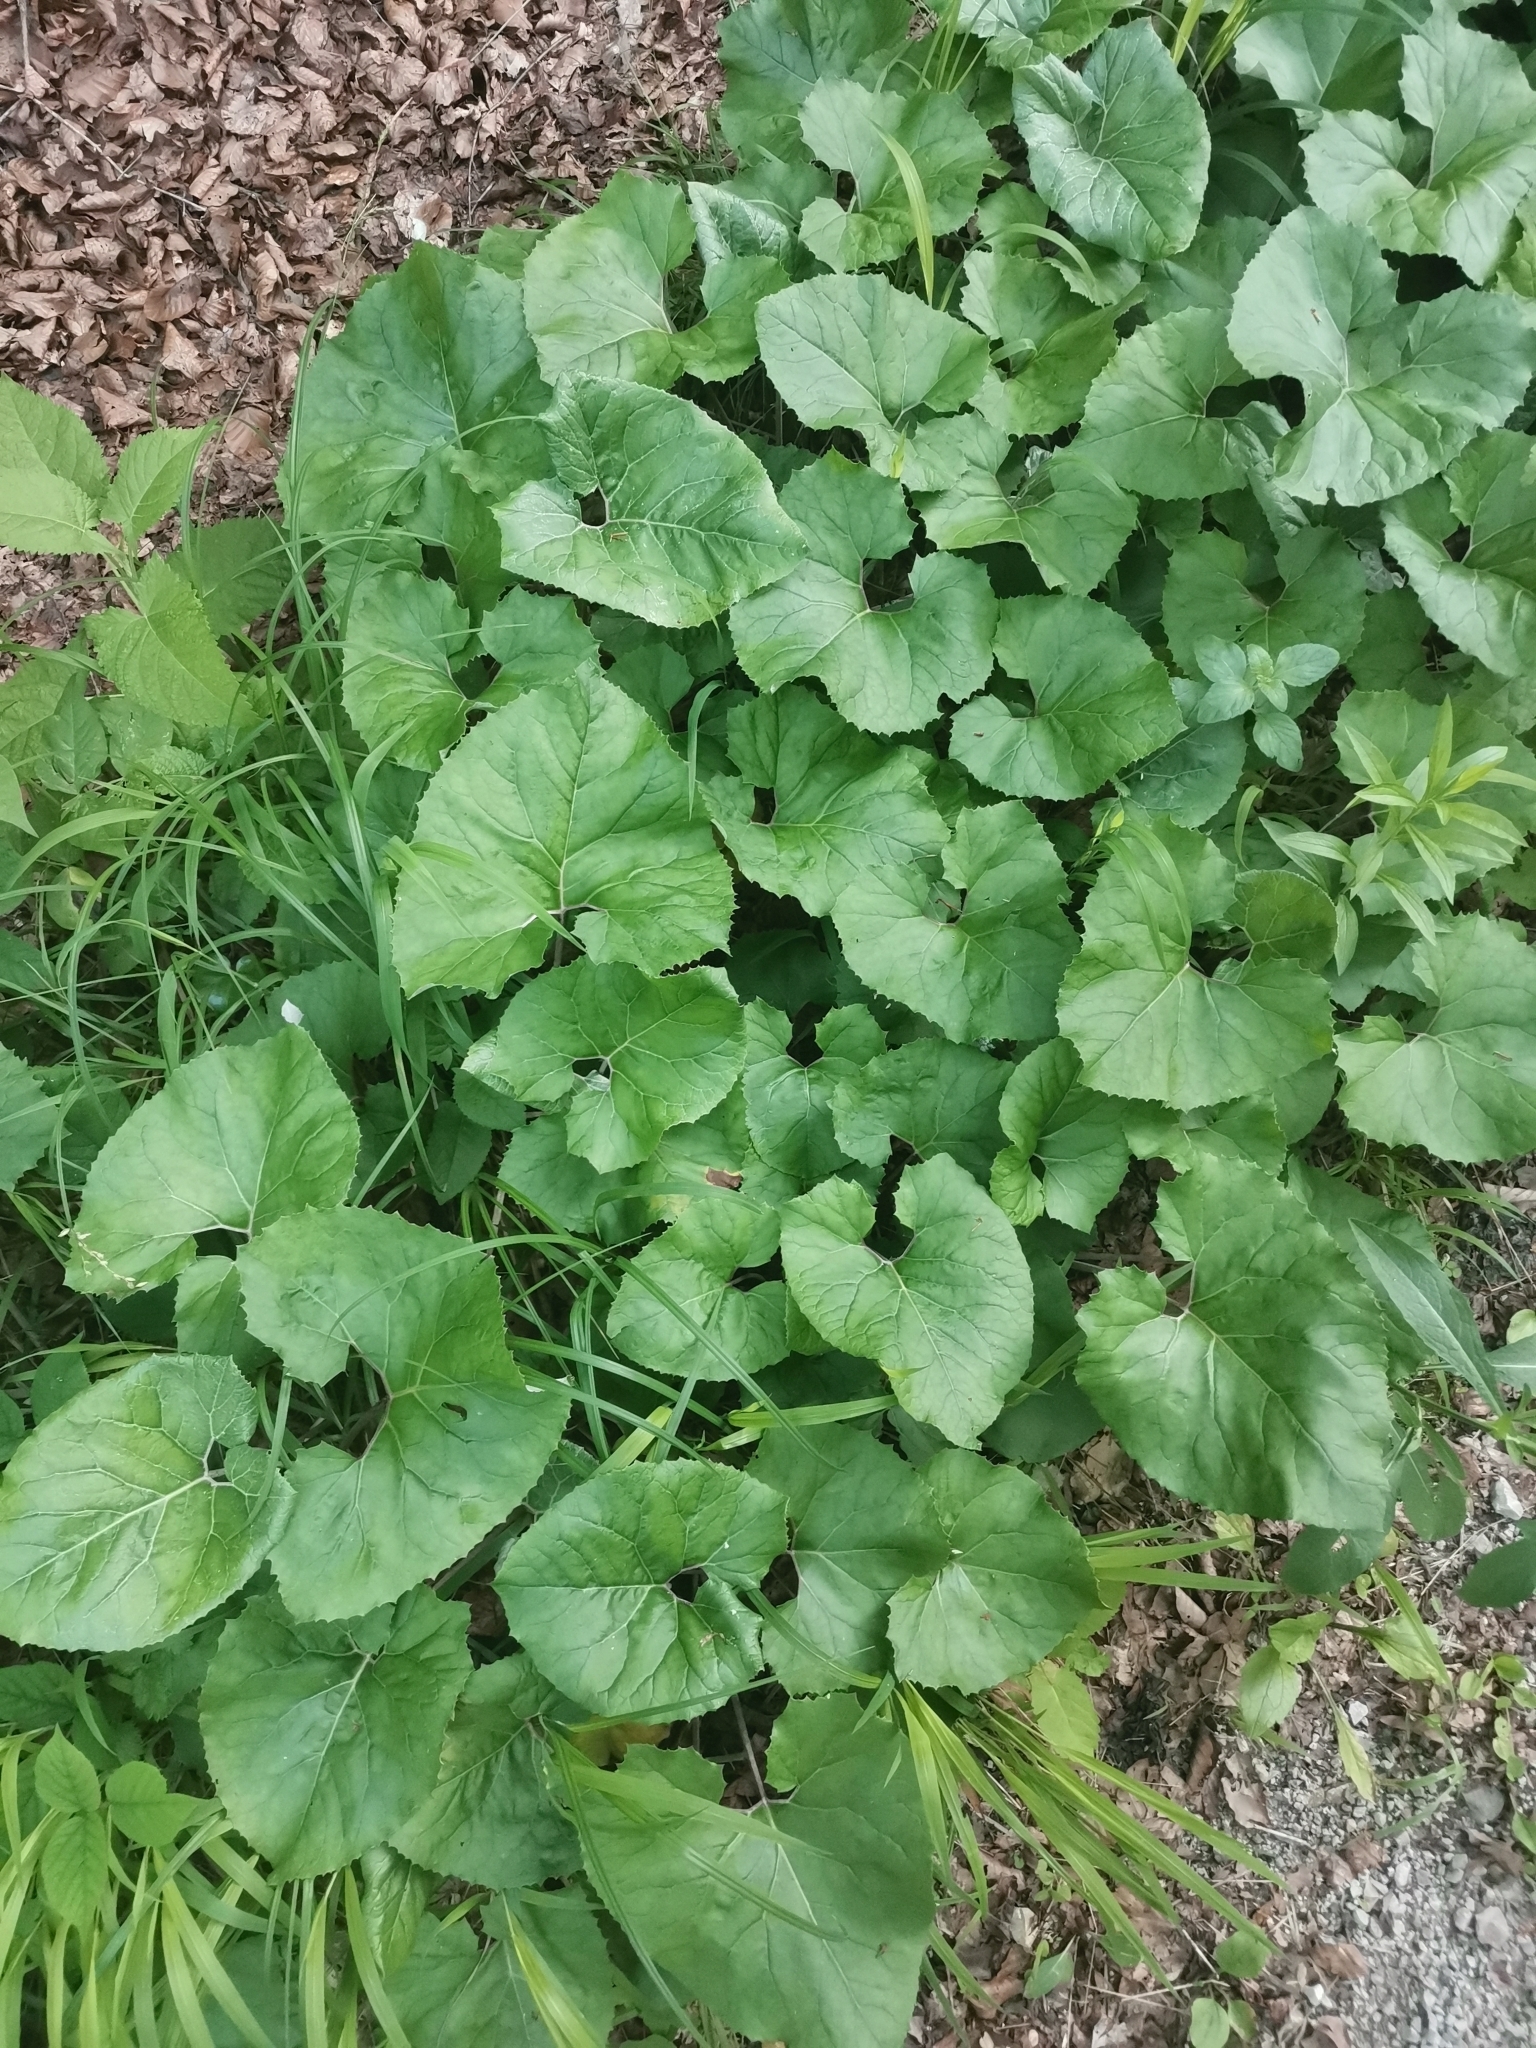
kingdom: Plantae
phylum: Tracheophyta
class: Magnoliopsida
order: Asterales
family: Asteraceae
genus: Petasites
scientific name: Petasites paradoxus
